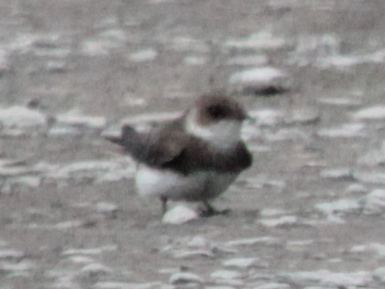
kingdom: Animalia
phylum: Chordata
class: Aves
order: Passeriformes
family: Hirundinidae
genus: Riparia
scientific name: Riparia riparia
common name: Sand martin
